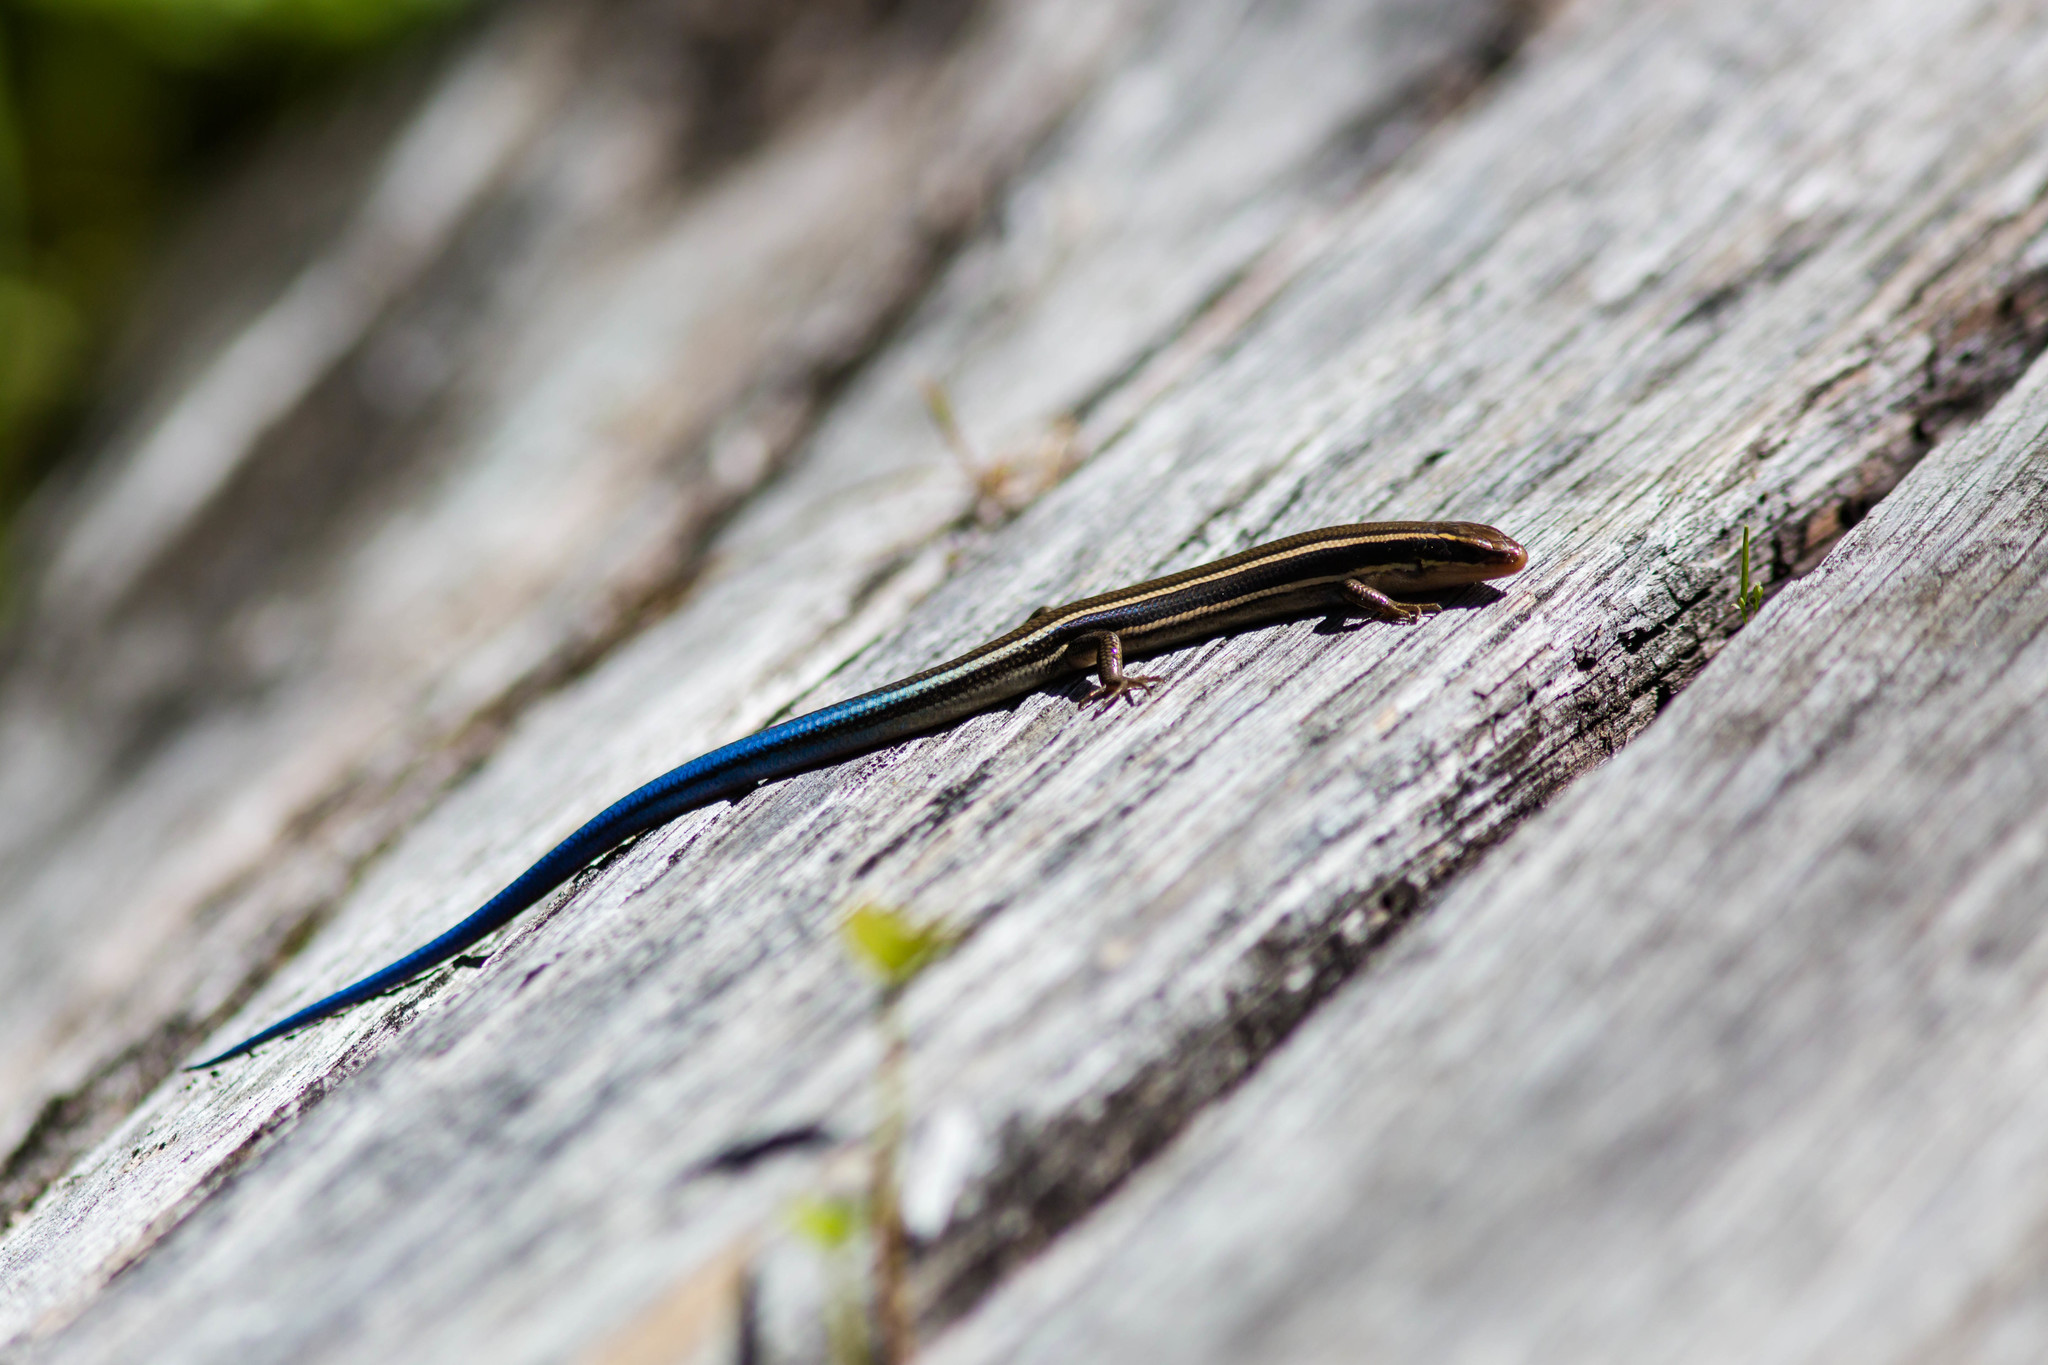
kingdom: Animalia
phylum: Chordata
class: Squamata
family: Scincidae
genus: Plestiodon
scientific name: Plestiodon skiltonianus
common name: Coronado island skink [interparietalis]
